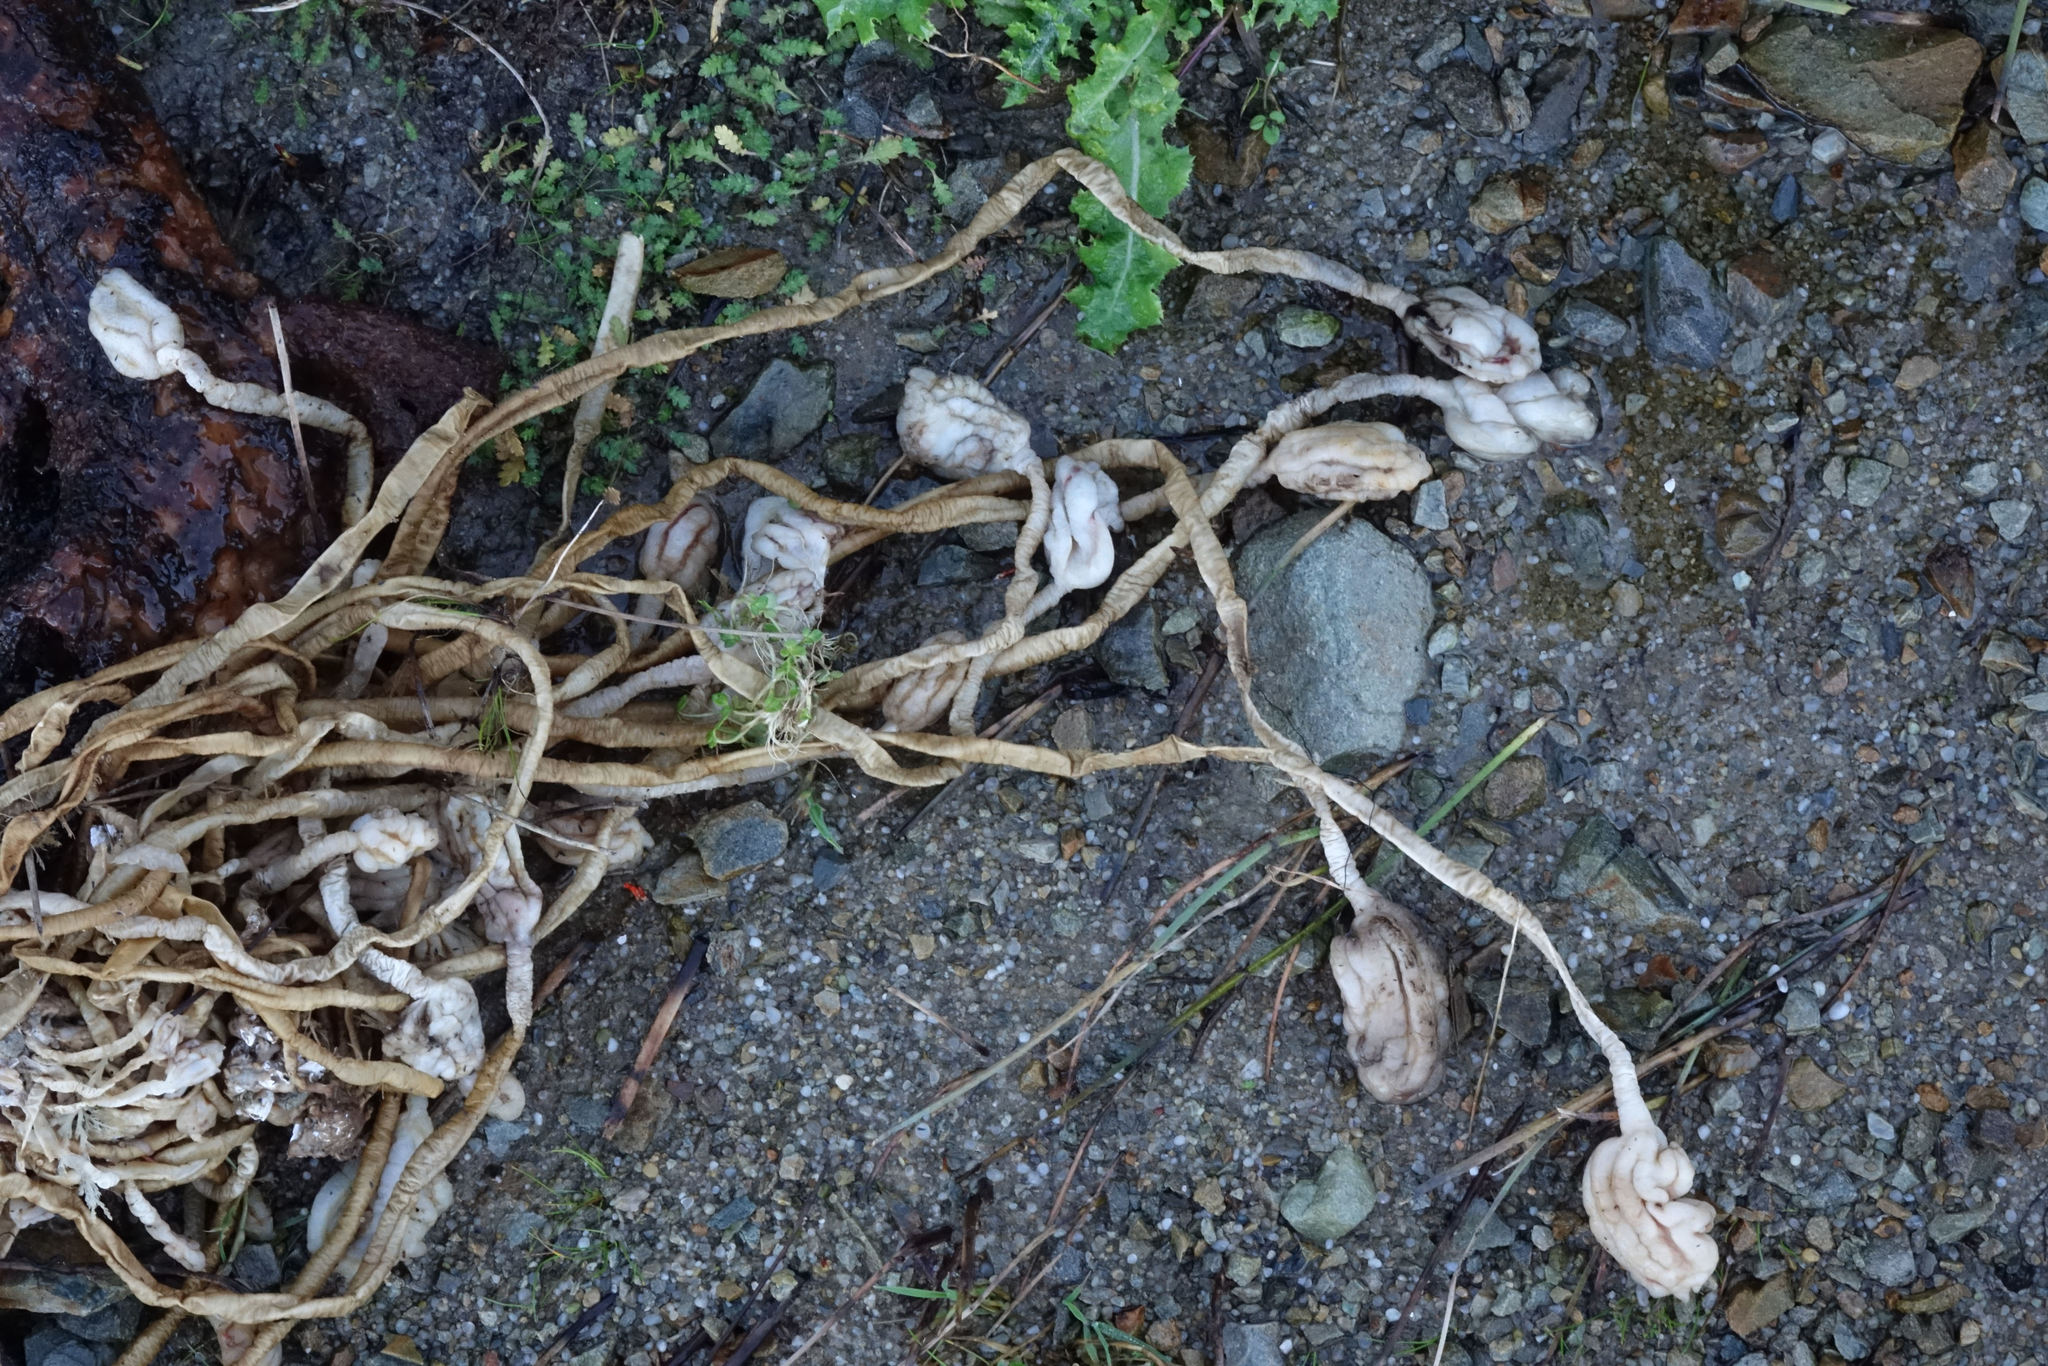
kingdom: Animalia
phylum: Chordata
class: Ascidiacea
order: Stolidobranchia
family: Pyuridae
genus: Pyura
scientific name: Pyura pachydermatina
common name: Sea tulip
